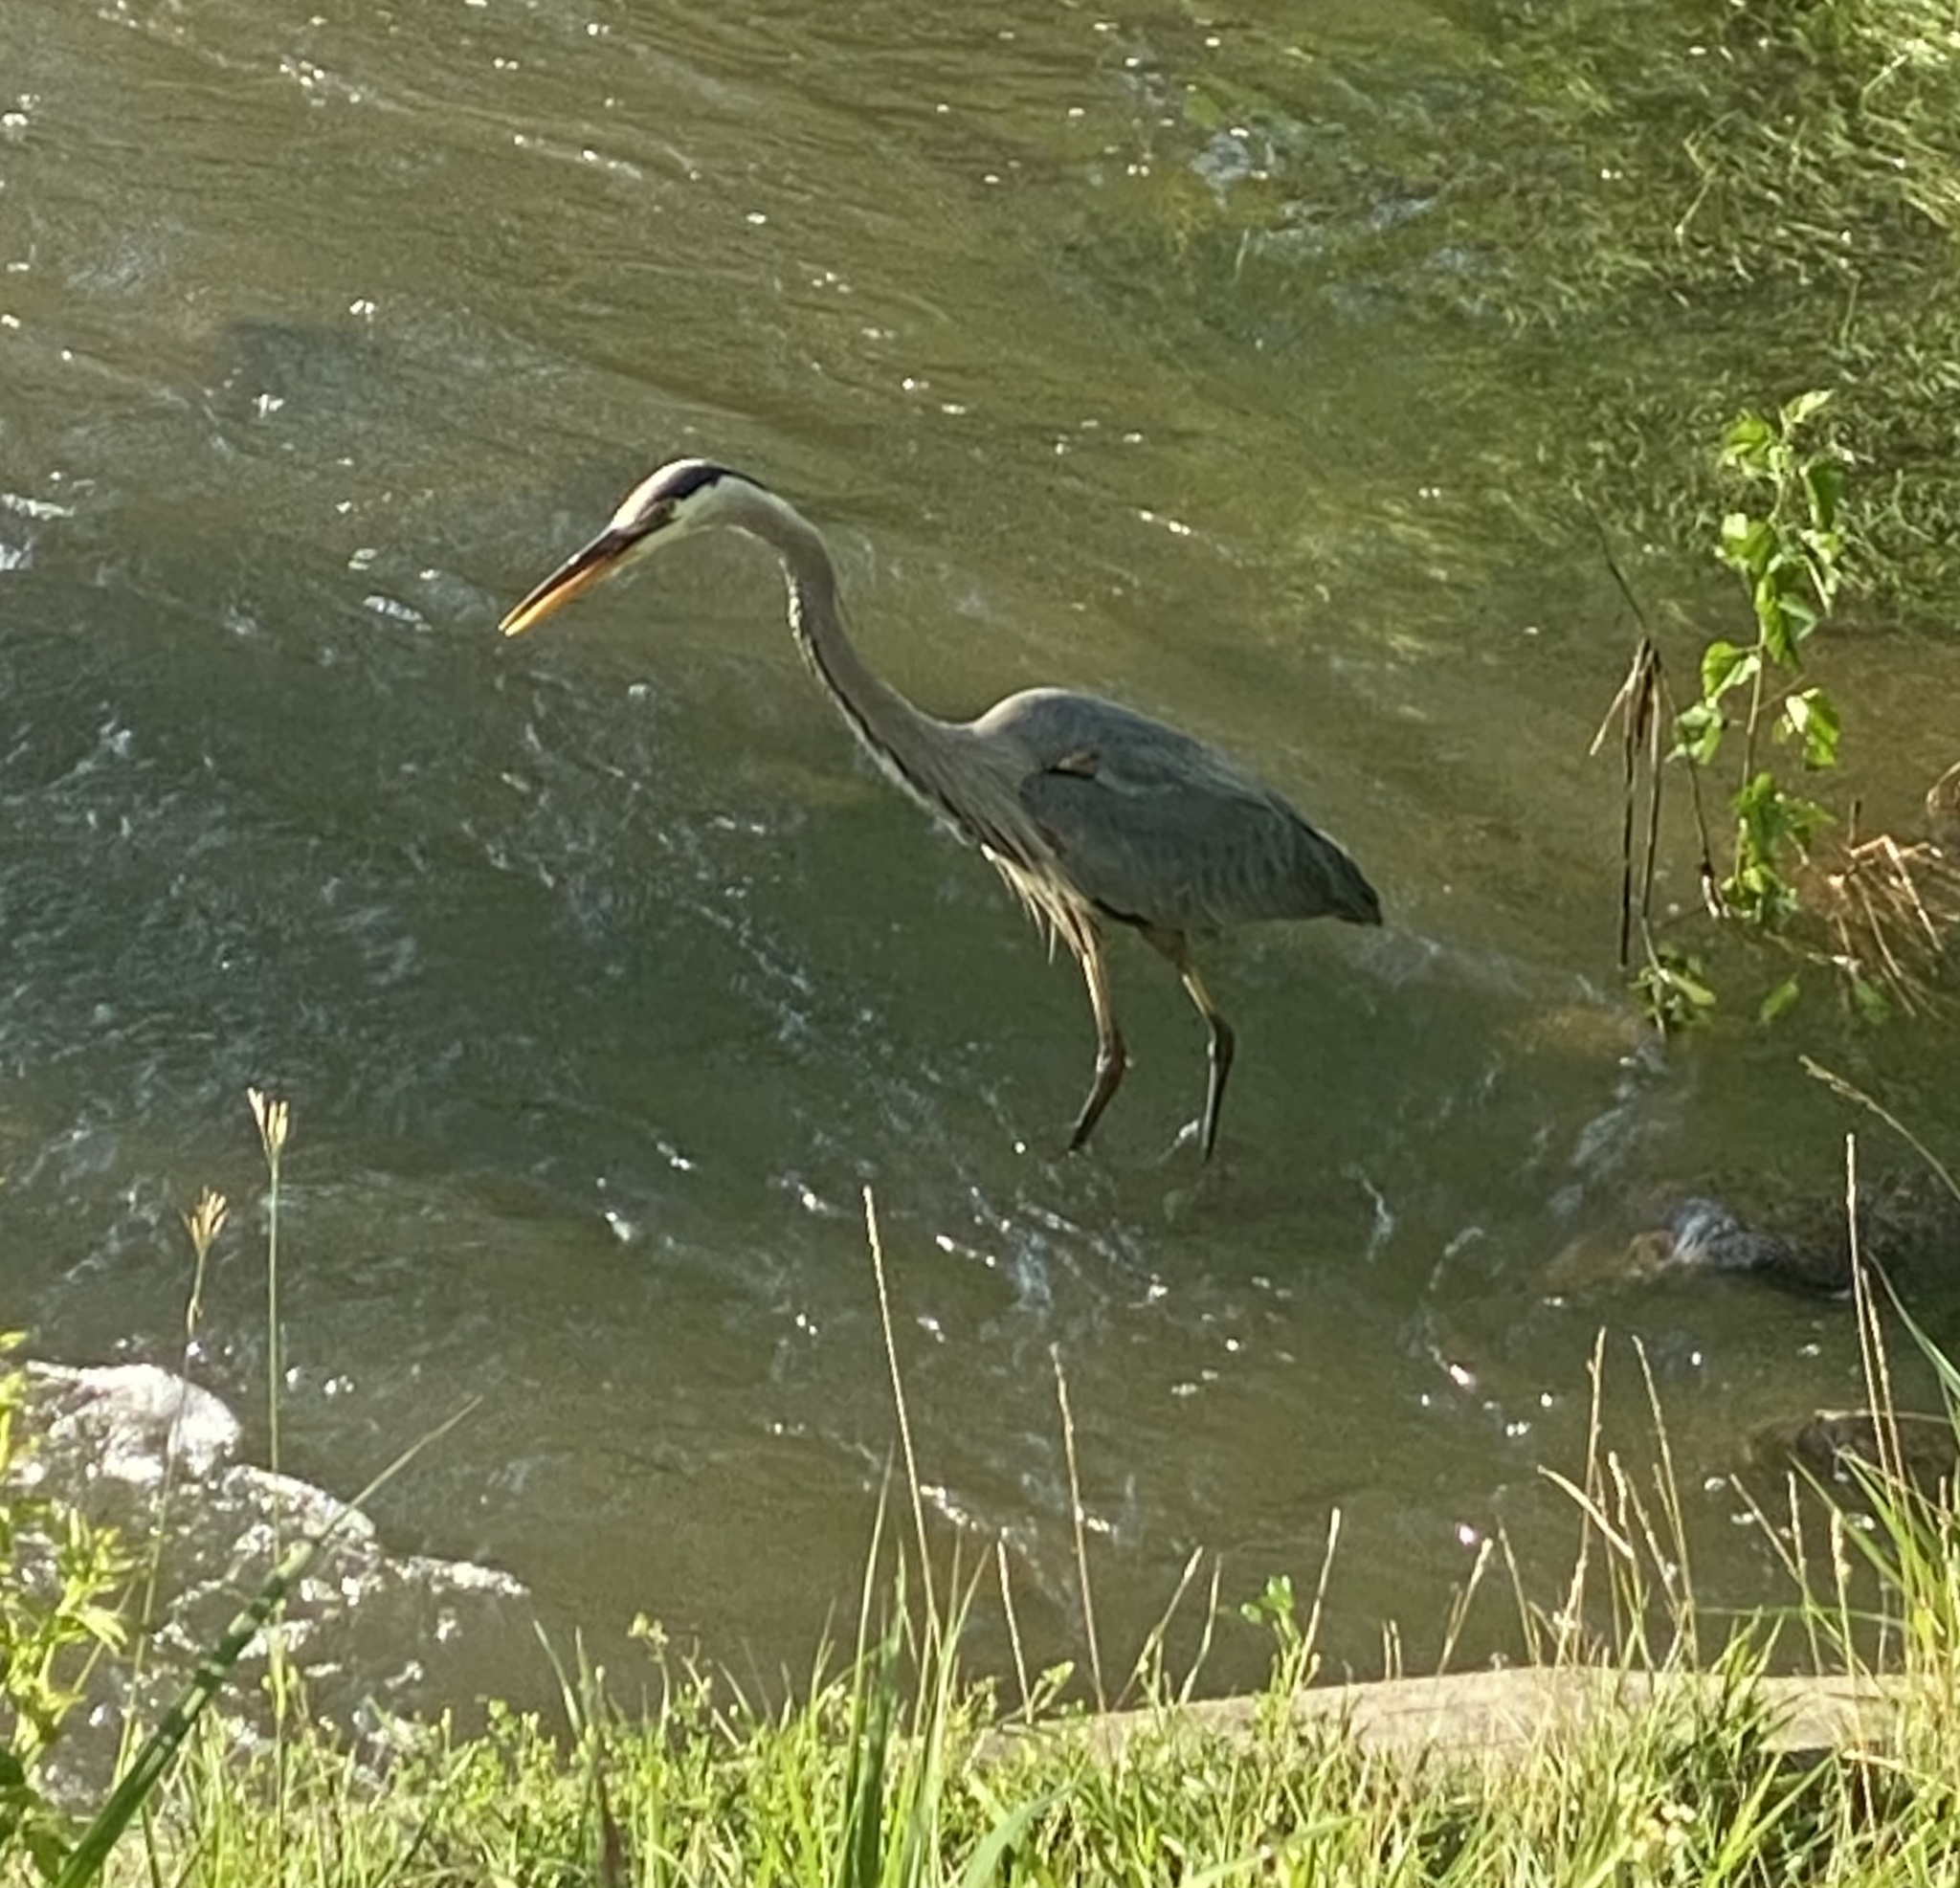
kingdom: Animalia
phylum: Chordata
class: Aves
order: Pelecaniformes
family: Ardeidae
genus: Ardea
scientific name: Ardea herodias
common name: Great blue heron
